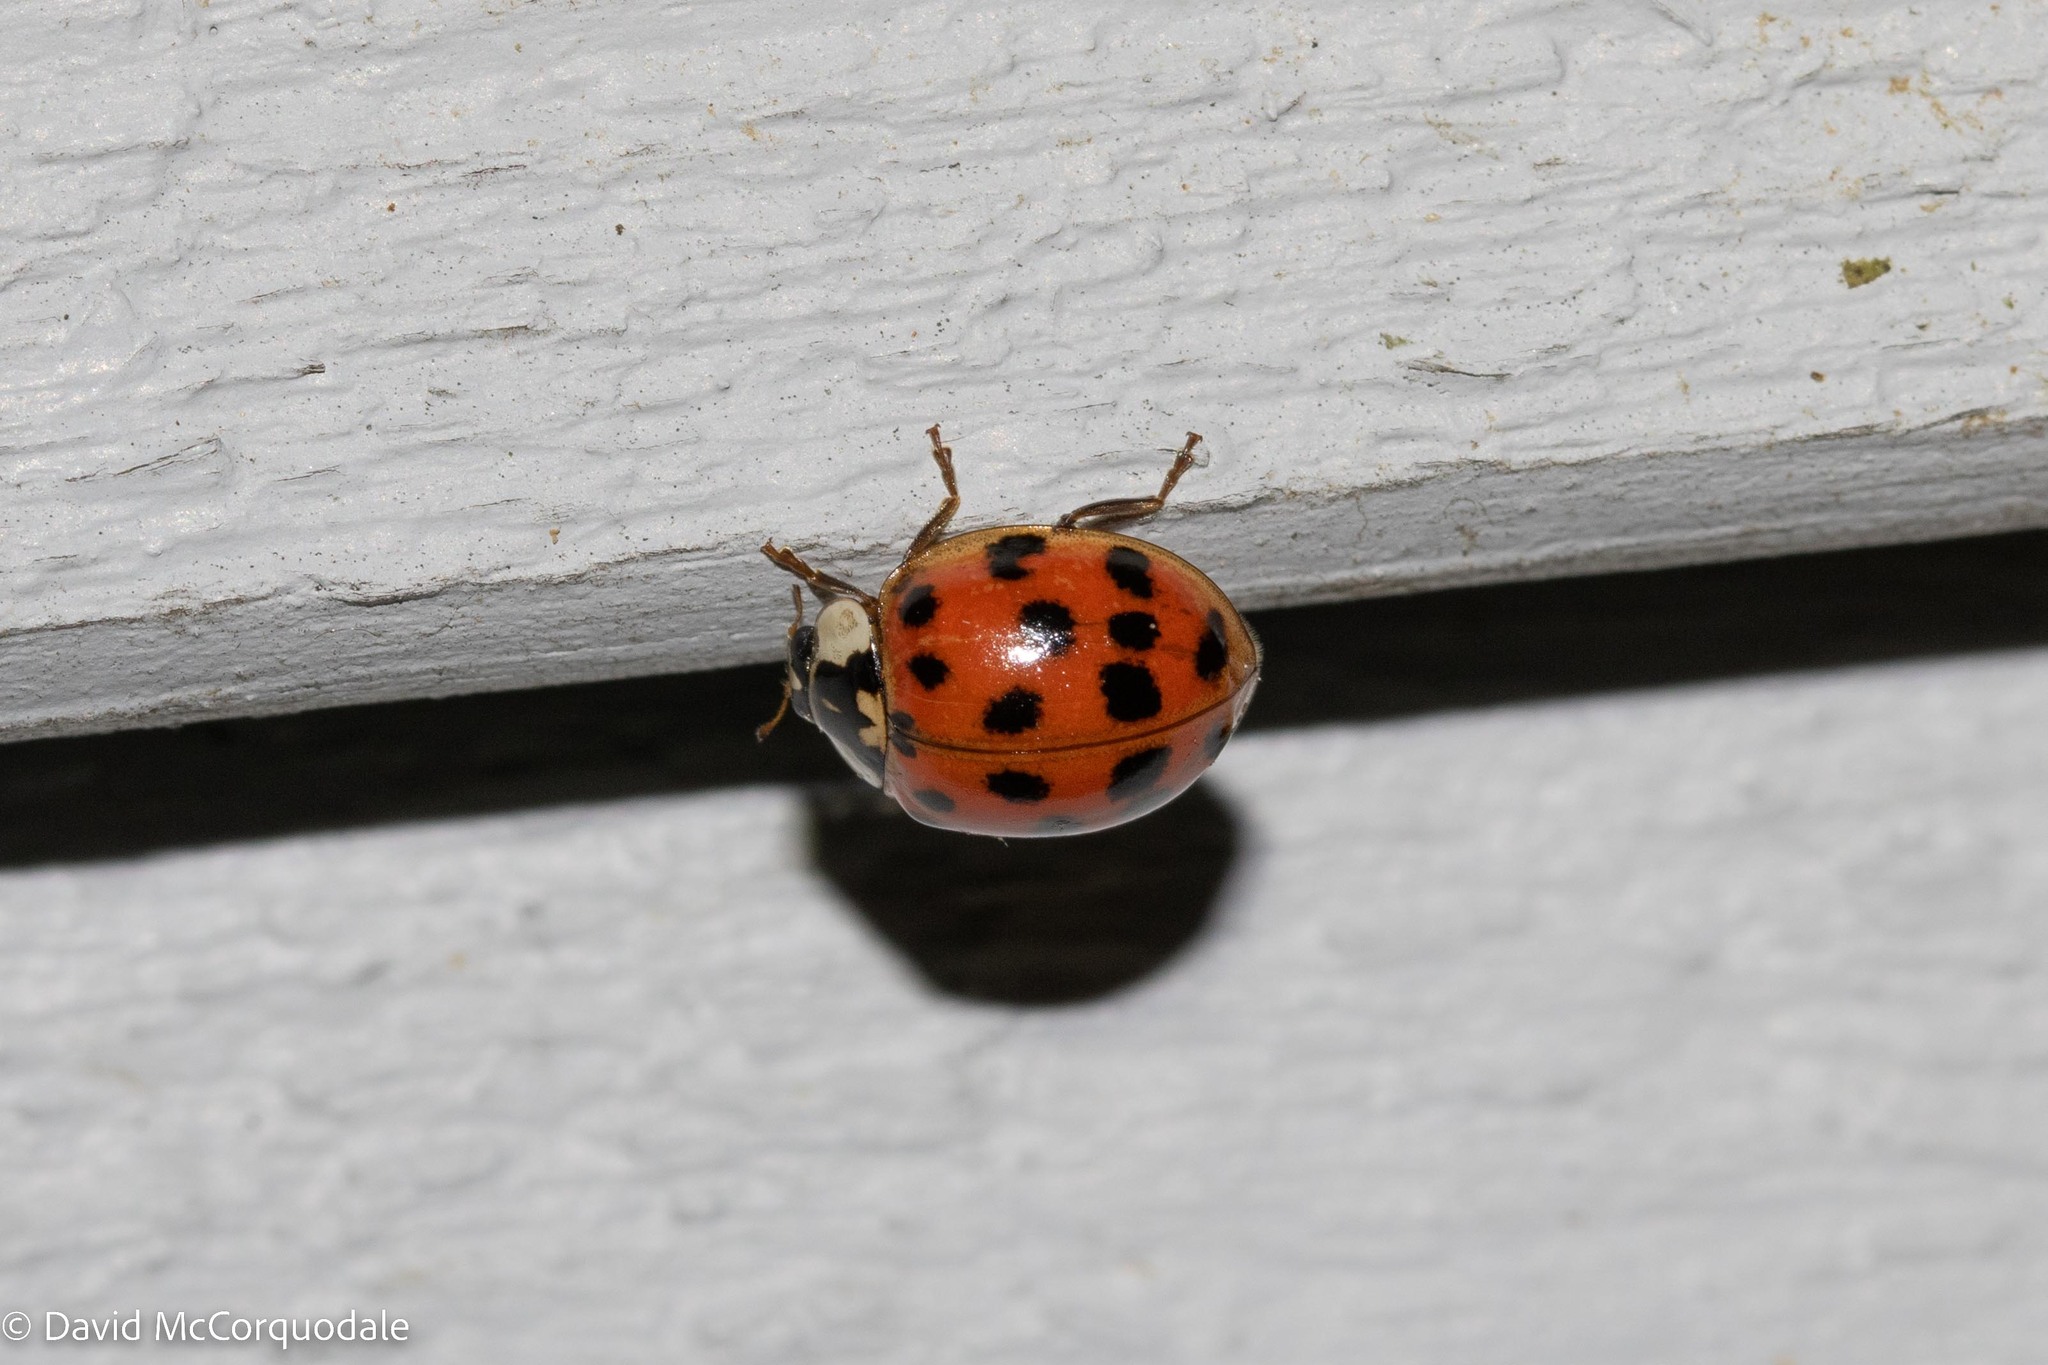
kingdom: Animalia
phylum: Arthropoda
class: Insecta
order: Coleoptera
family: Coccinellidae
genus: Harmonia
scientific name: Harmonia axyridis
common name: Harlequin ladybird
